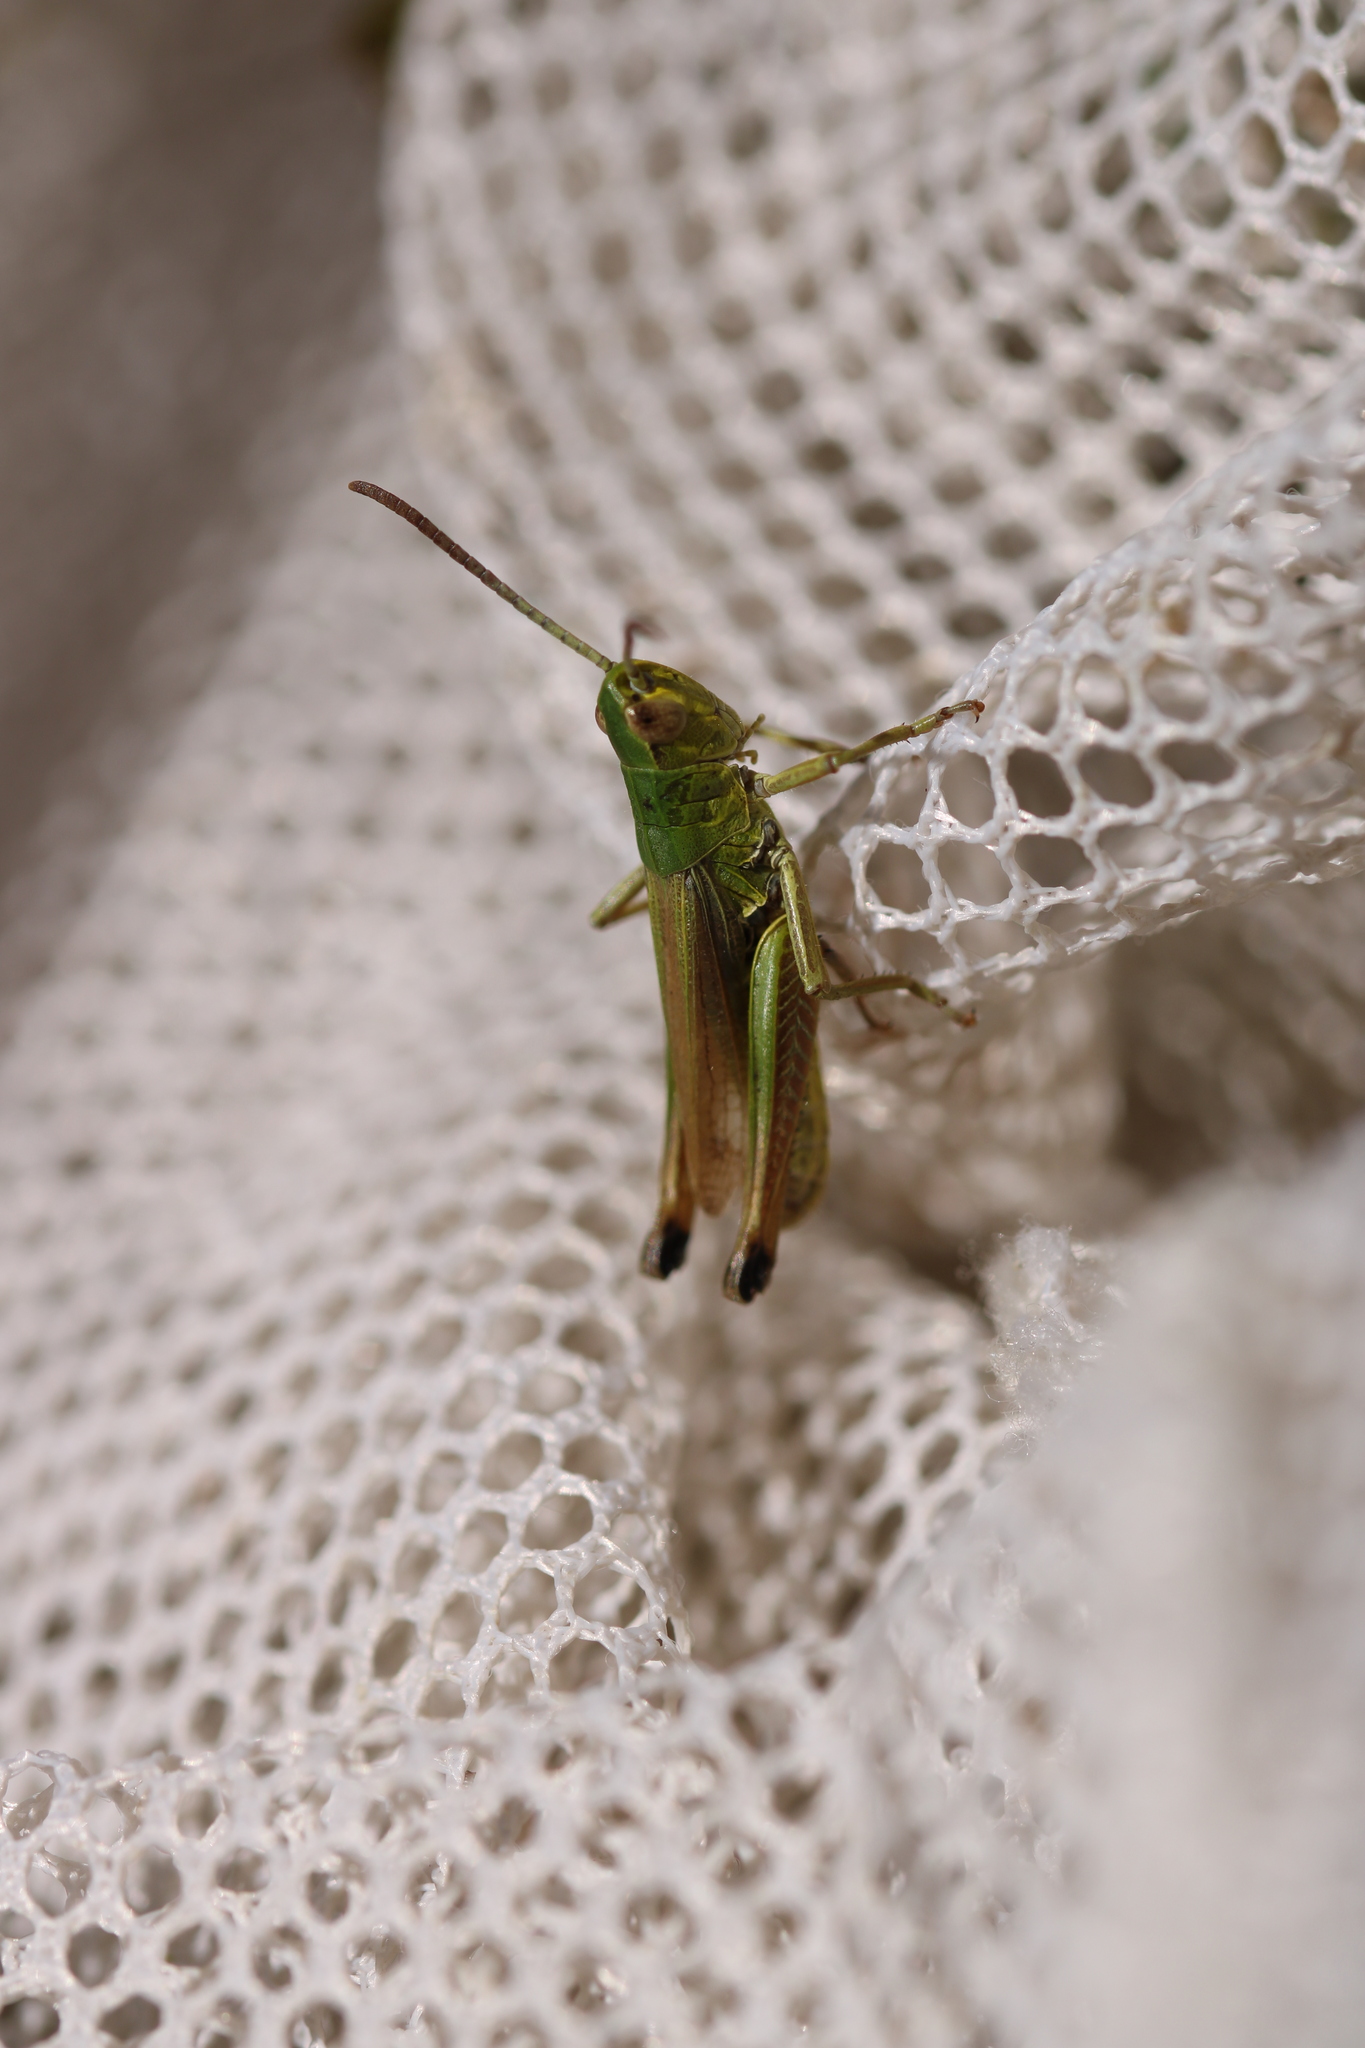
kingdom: Animalia
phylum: Arthropoda
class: Insecta
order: Orthoptera
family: Acrididae
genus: Pseudochorthippus
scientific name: Pseudochorthippus parallelus
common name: Meadow grasshopper
